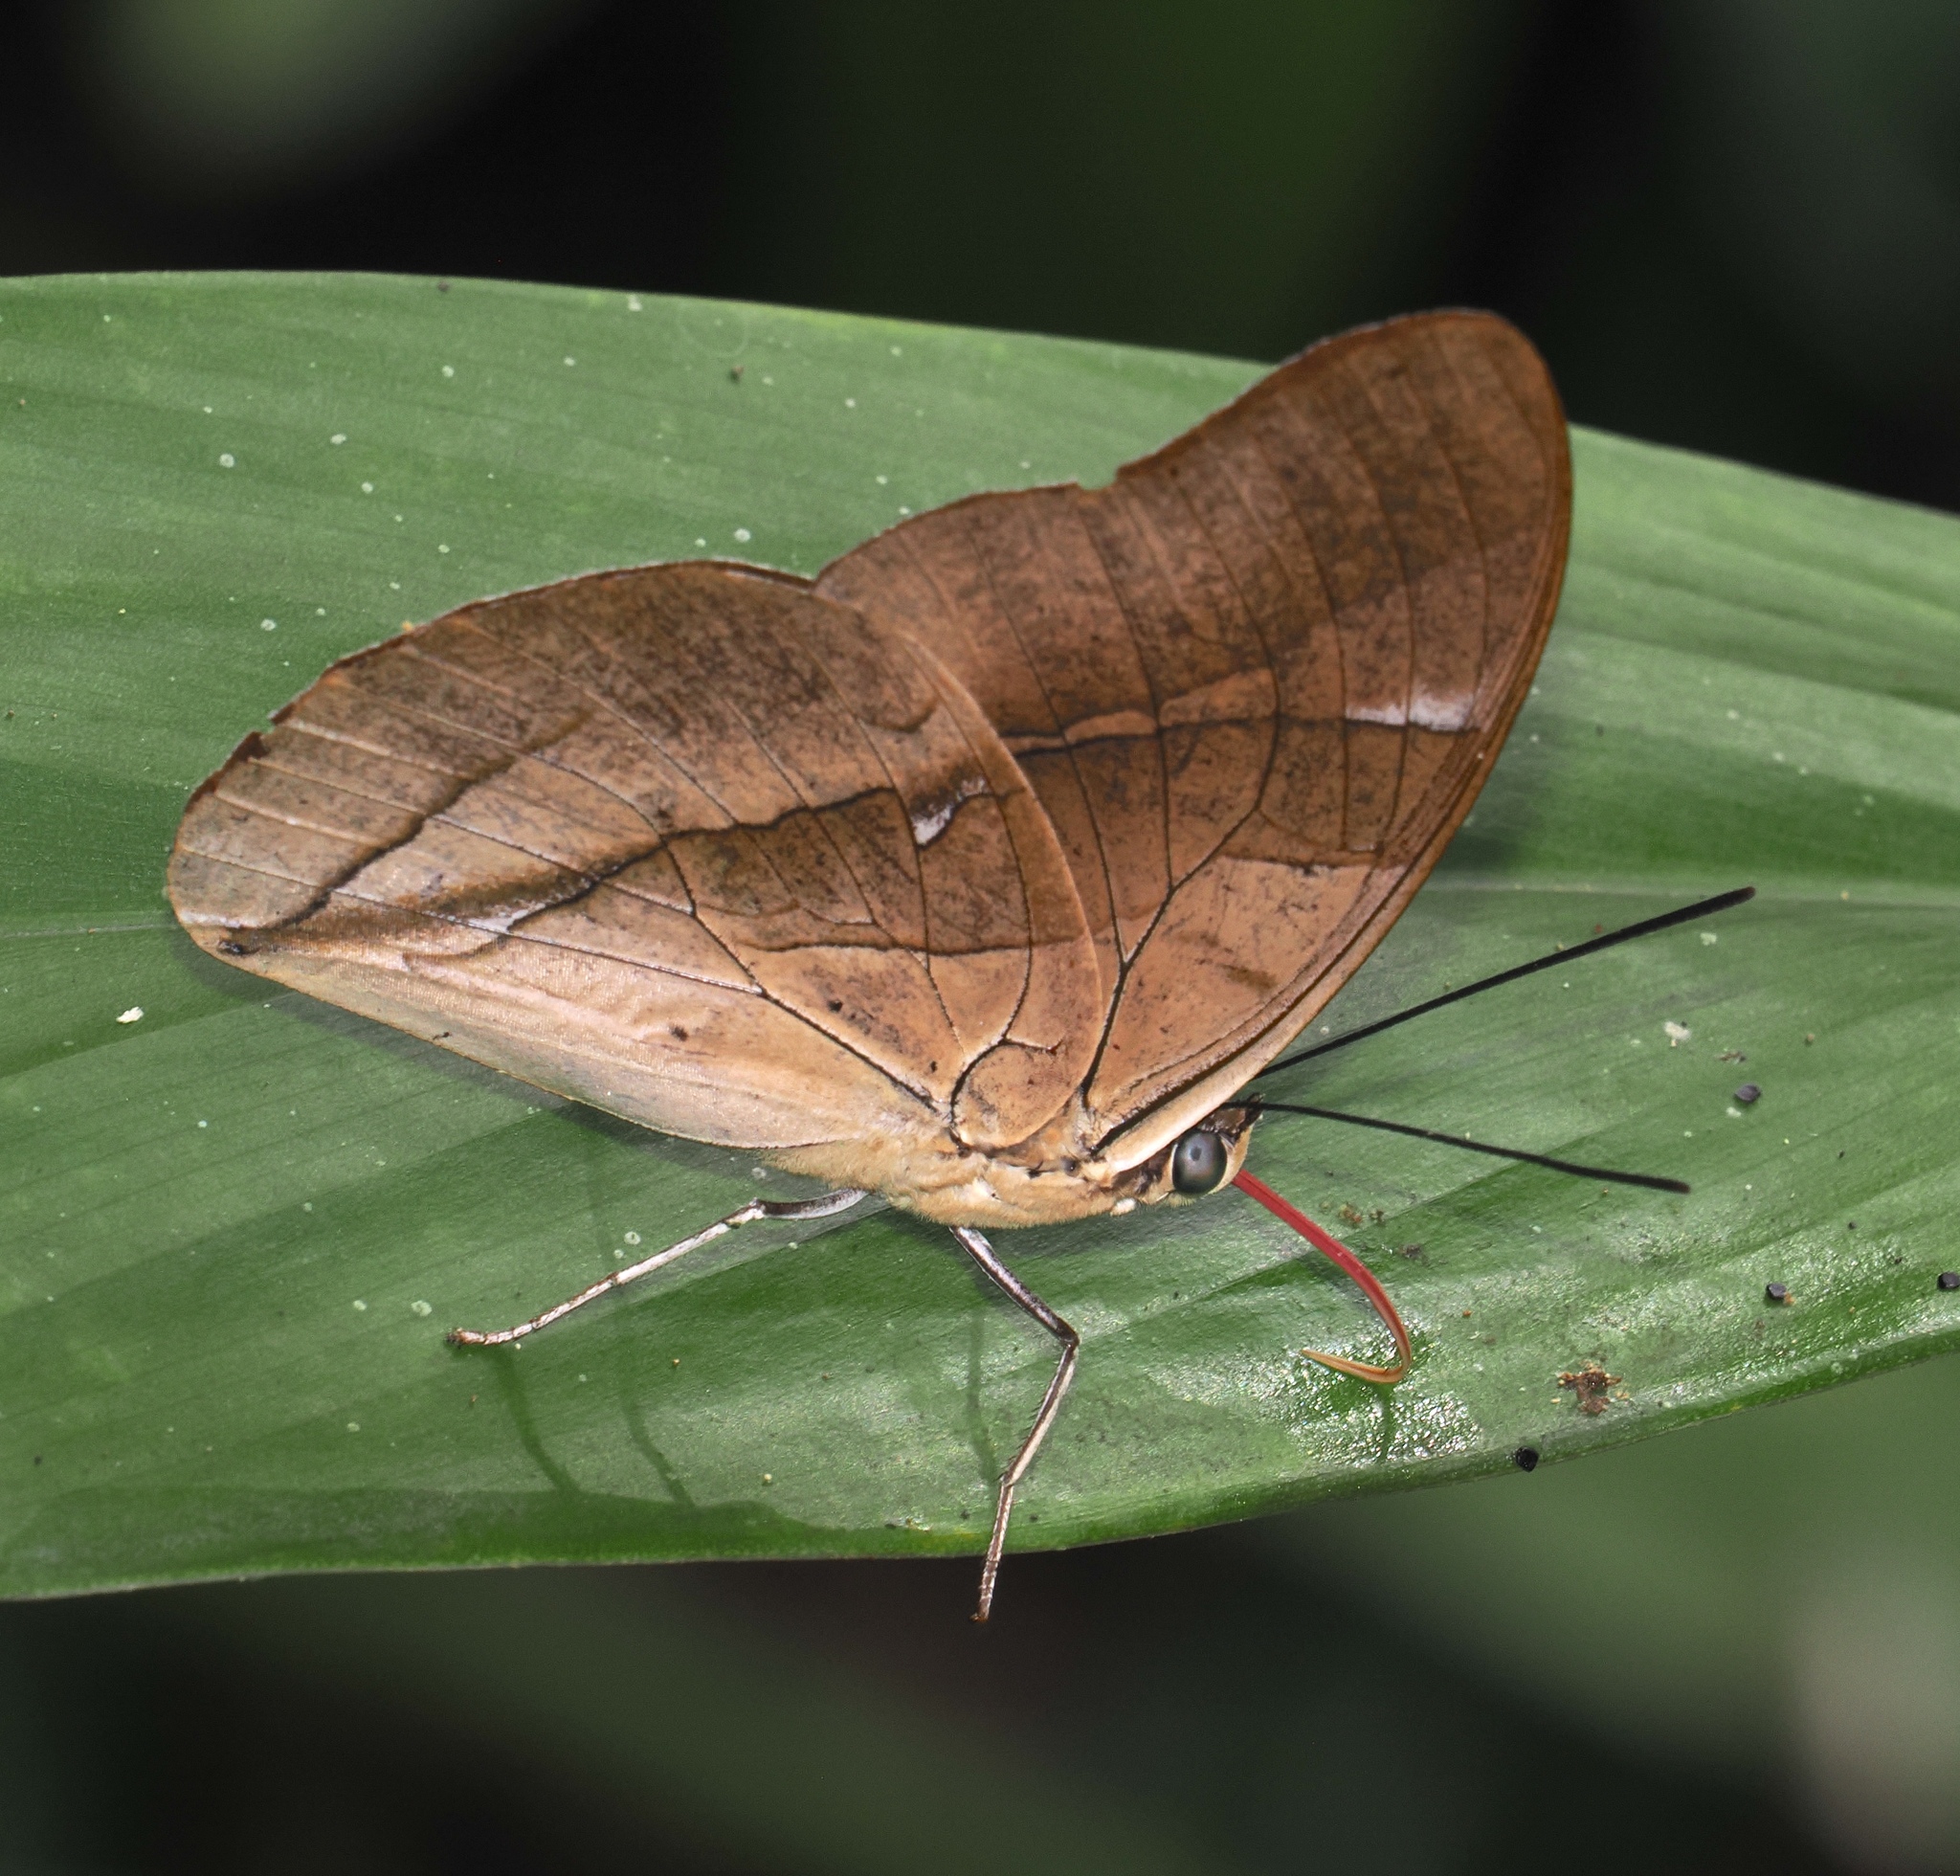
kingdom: Animalia
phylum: Arthropoda
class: Insecta
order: Lepidoptera
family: Nymphalidae
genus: Prepona
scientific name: Prepona Archaeoprepona chalciope
